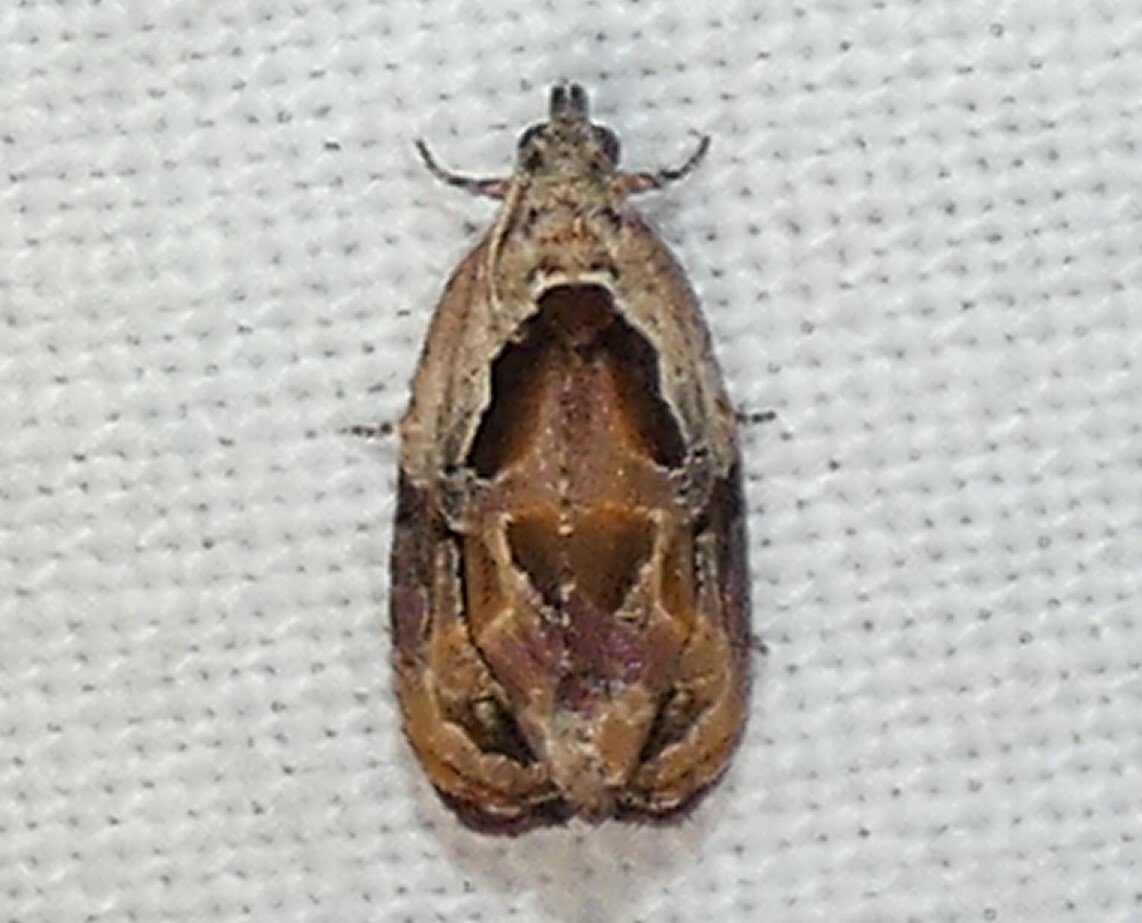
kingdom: Animalia
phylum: Arthropoda
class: Insecta
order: Lepidoptera
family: Tortricidae
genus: Zomaria
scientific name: Zomaria interruptolineana
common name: Broken-lined zomaria moth
